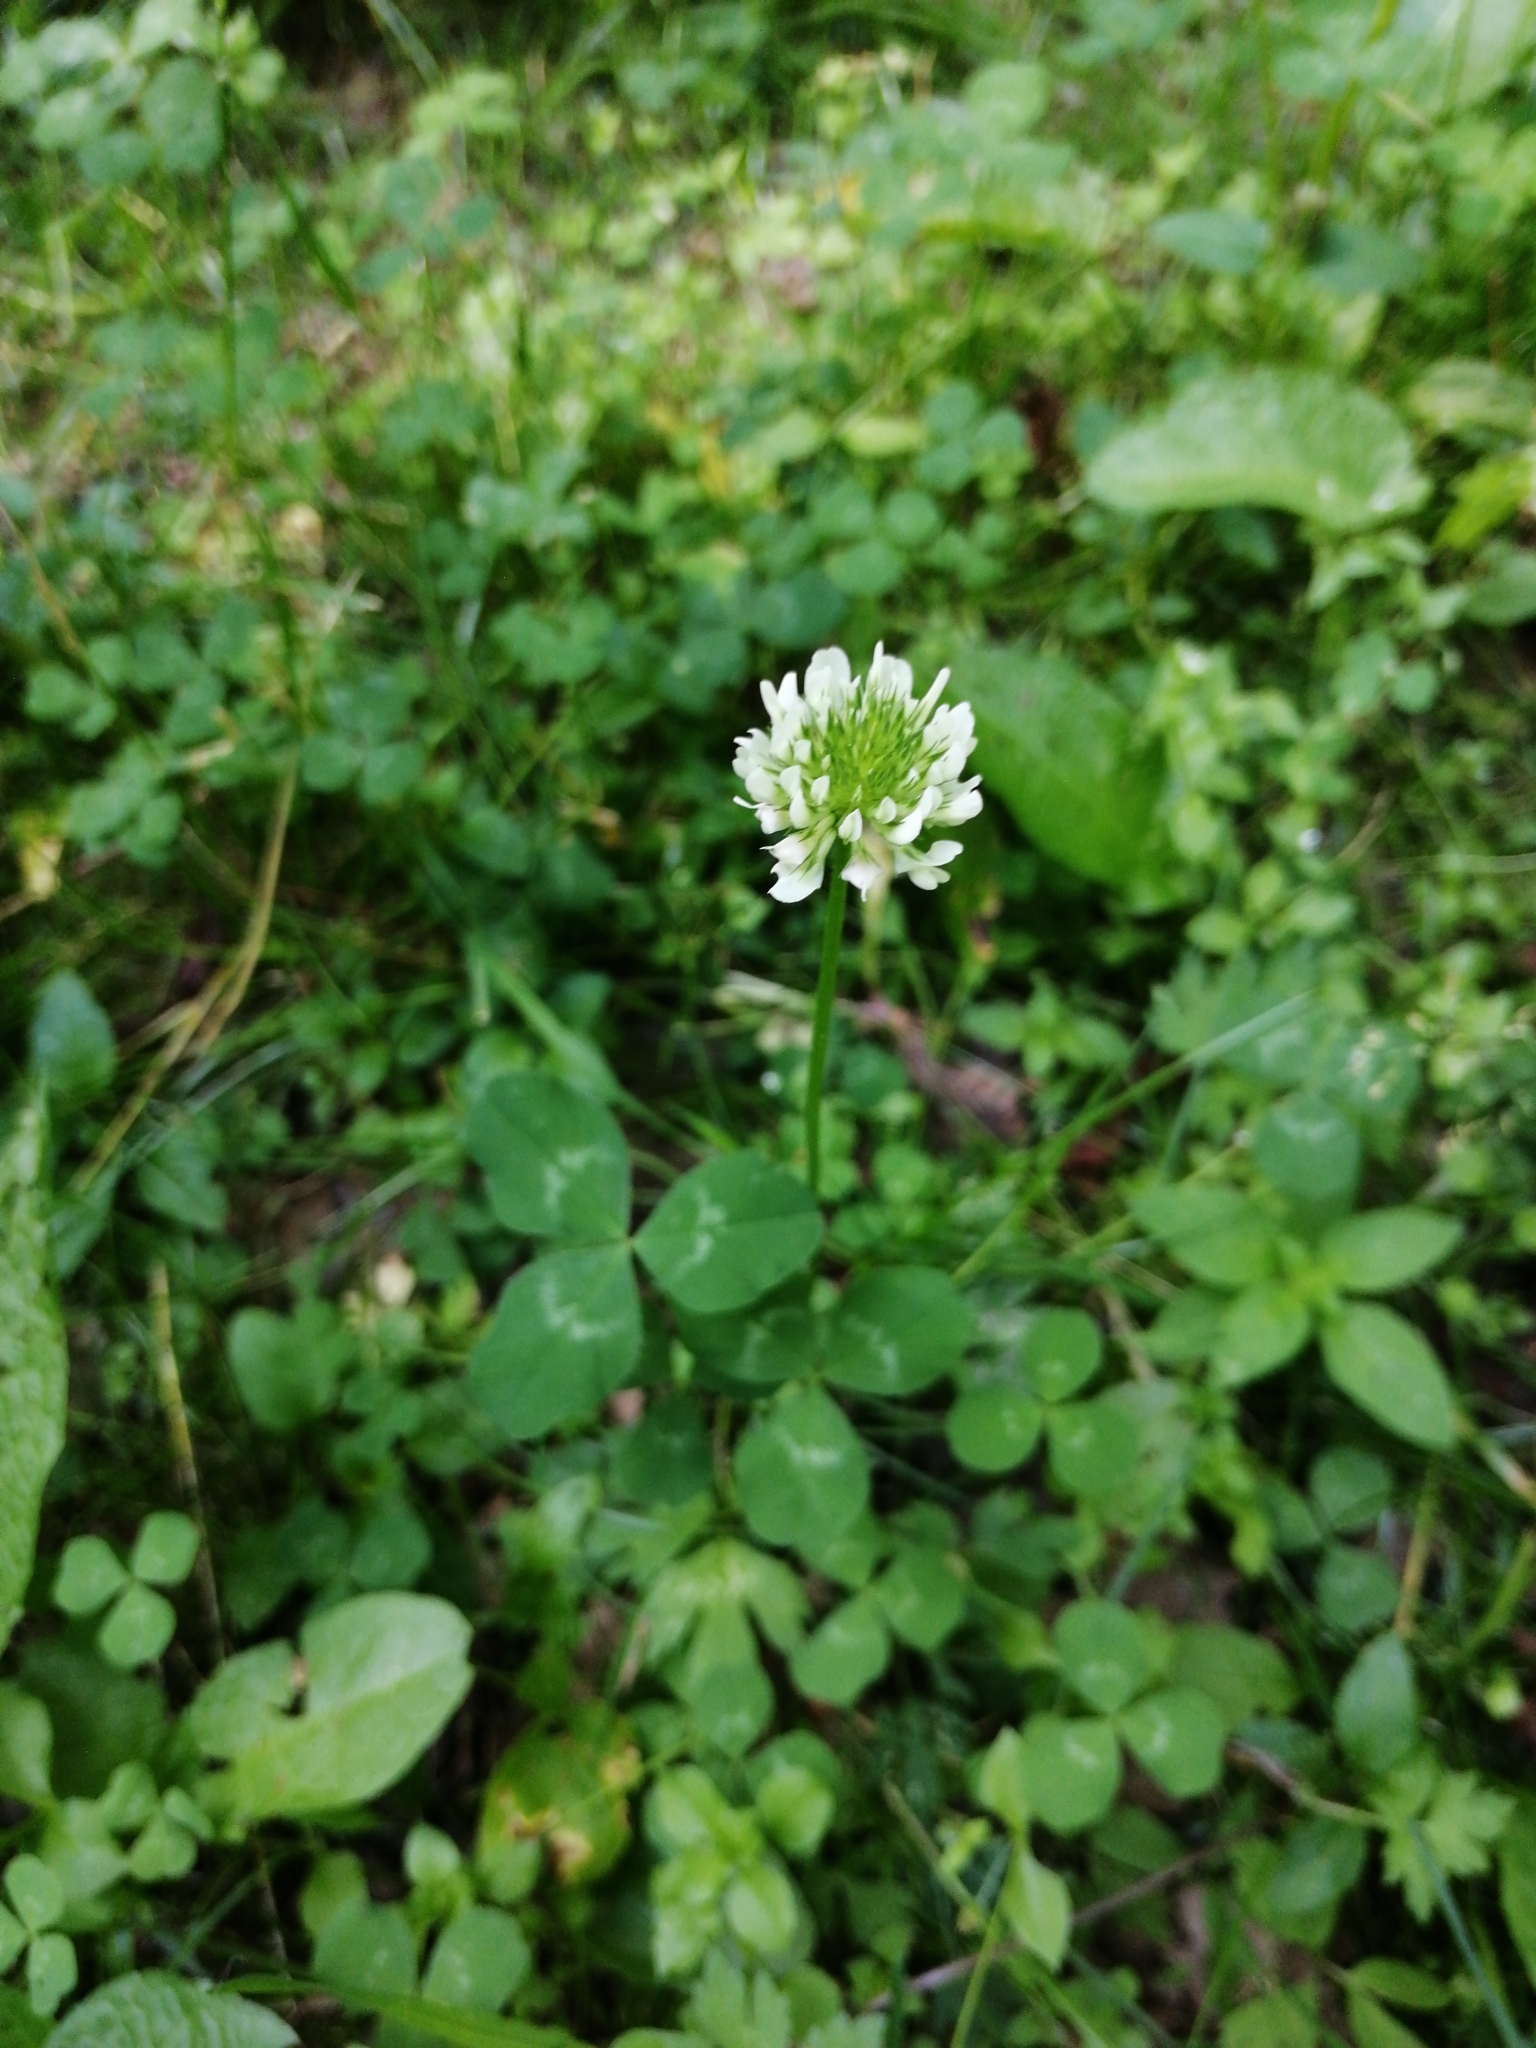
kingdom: Plantae
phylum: Tracheophyta
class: Magnoliopsida
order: Fabales
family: Fabaceae
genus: Trifolium
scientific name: Trifolium repens
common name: White clover
